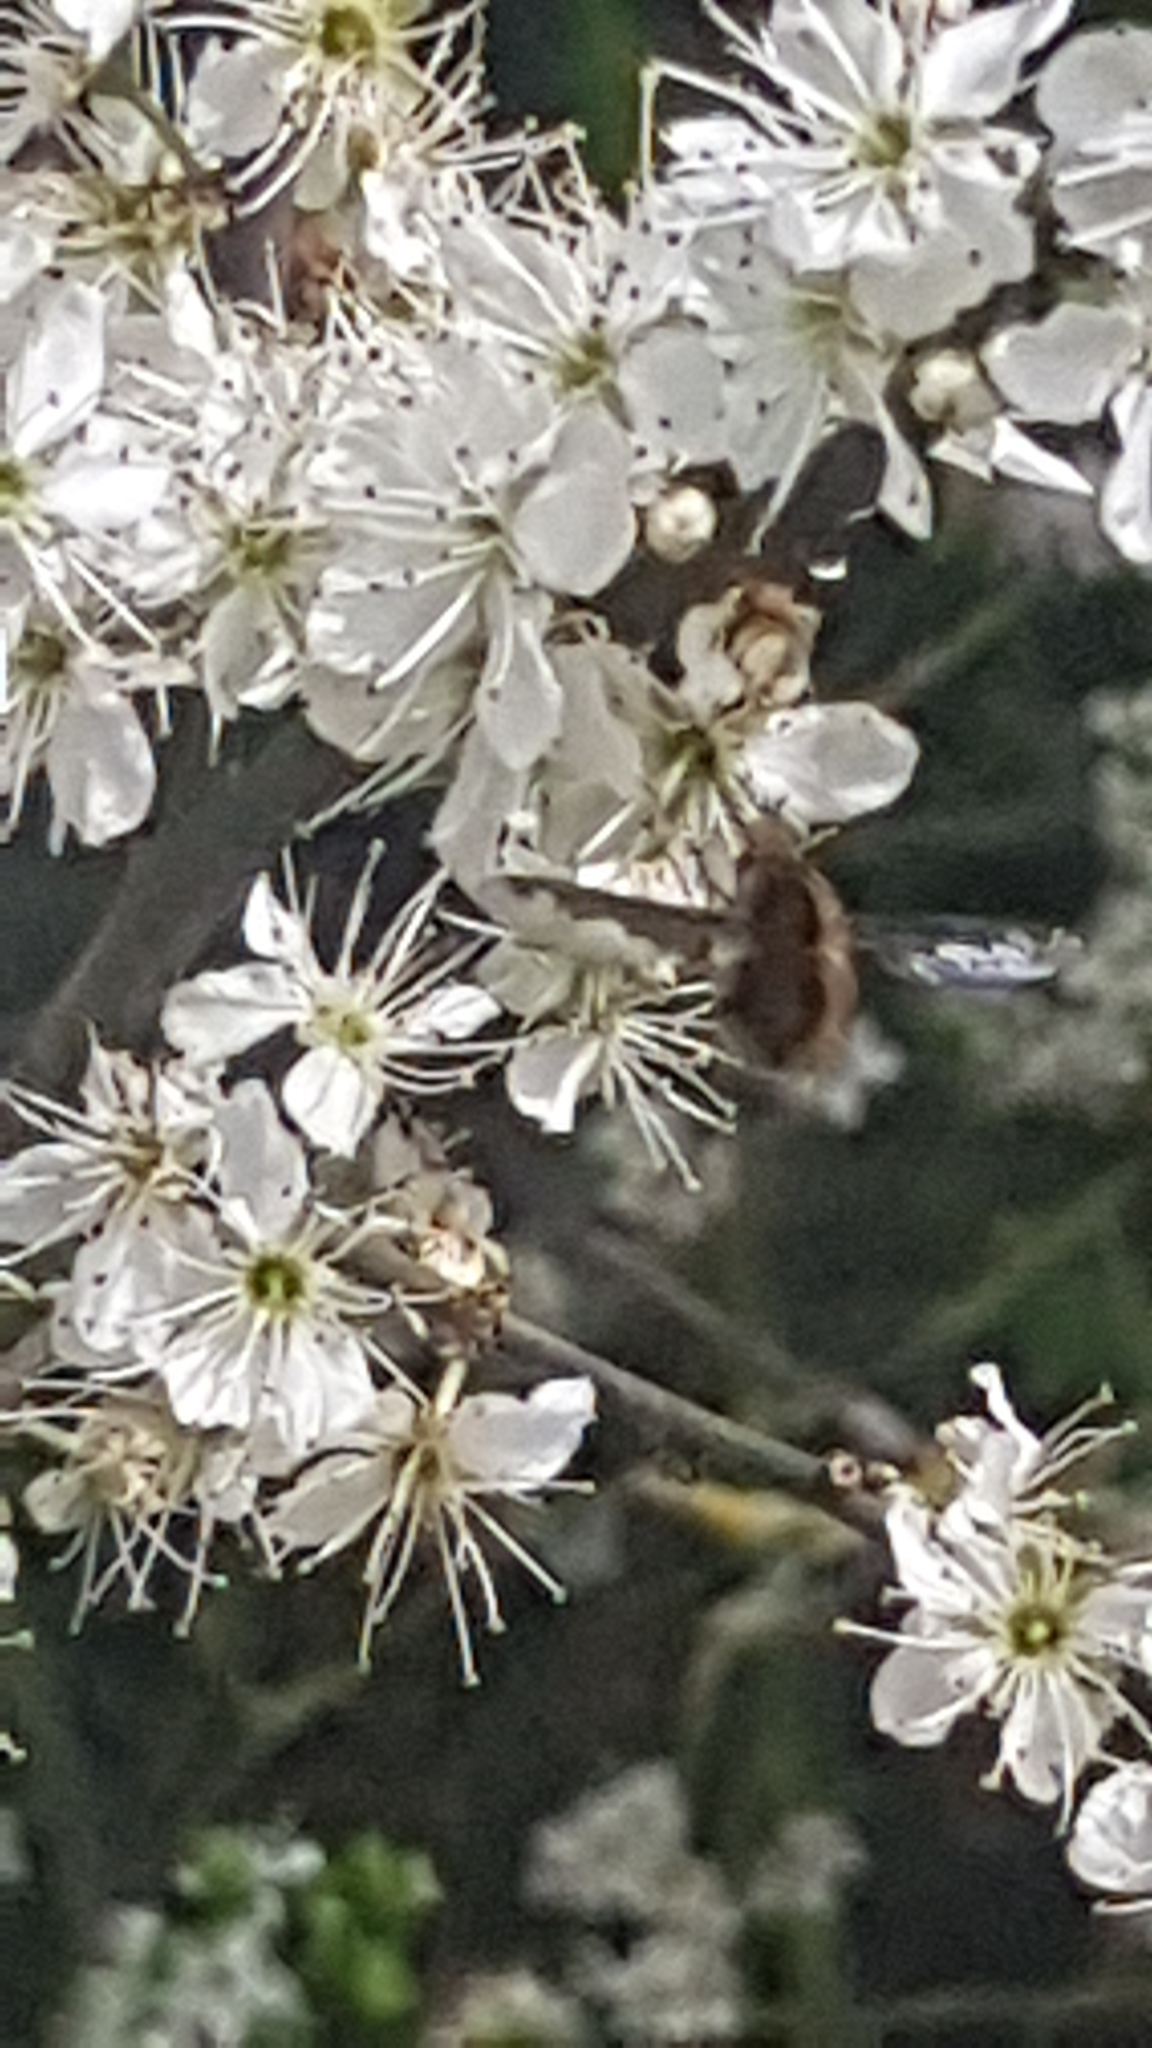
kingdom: Animalia
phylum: Arthropoda
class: Insecta
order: Diptera
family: Bombyliidae
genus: Bombylius
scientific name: Bombylius major
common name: Bee fly
